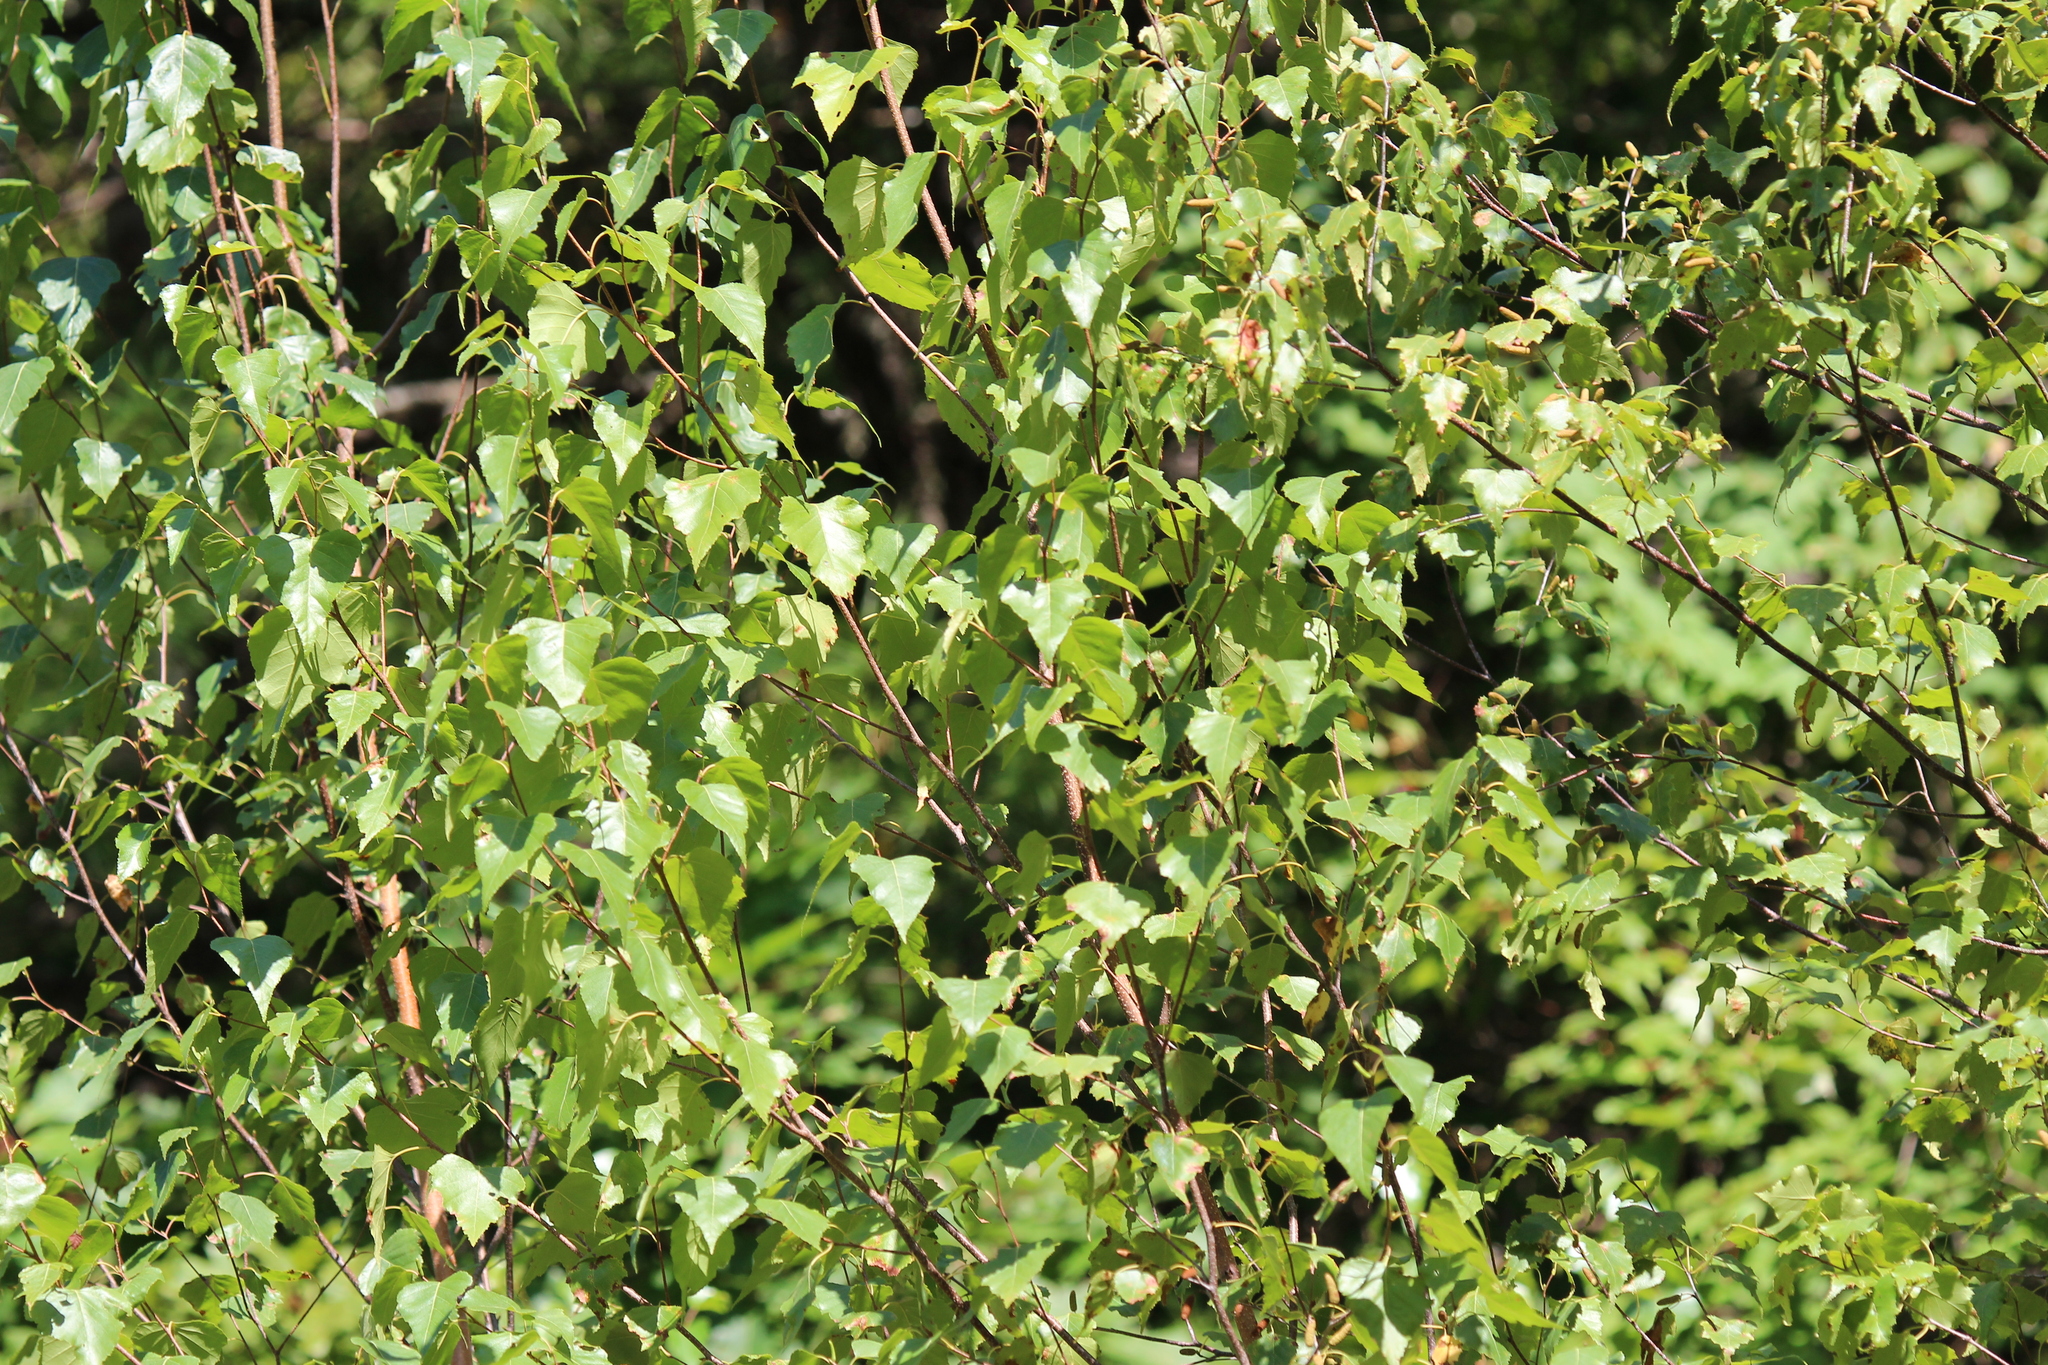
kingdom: Plantae
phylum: Tracheophyta
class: Magnoliopsida
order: Fagales
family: Betulaceae
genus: Betula
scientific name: Betula populifolia
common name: Fire birch
